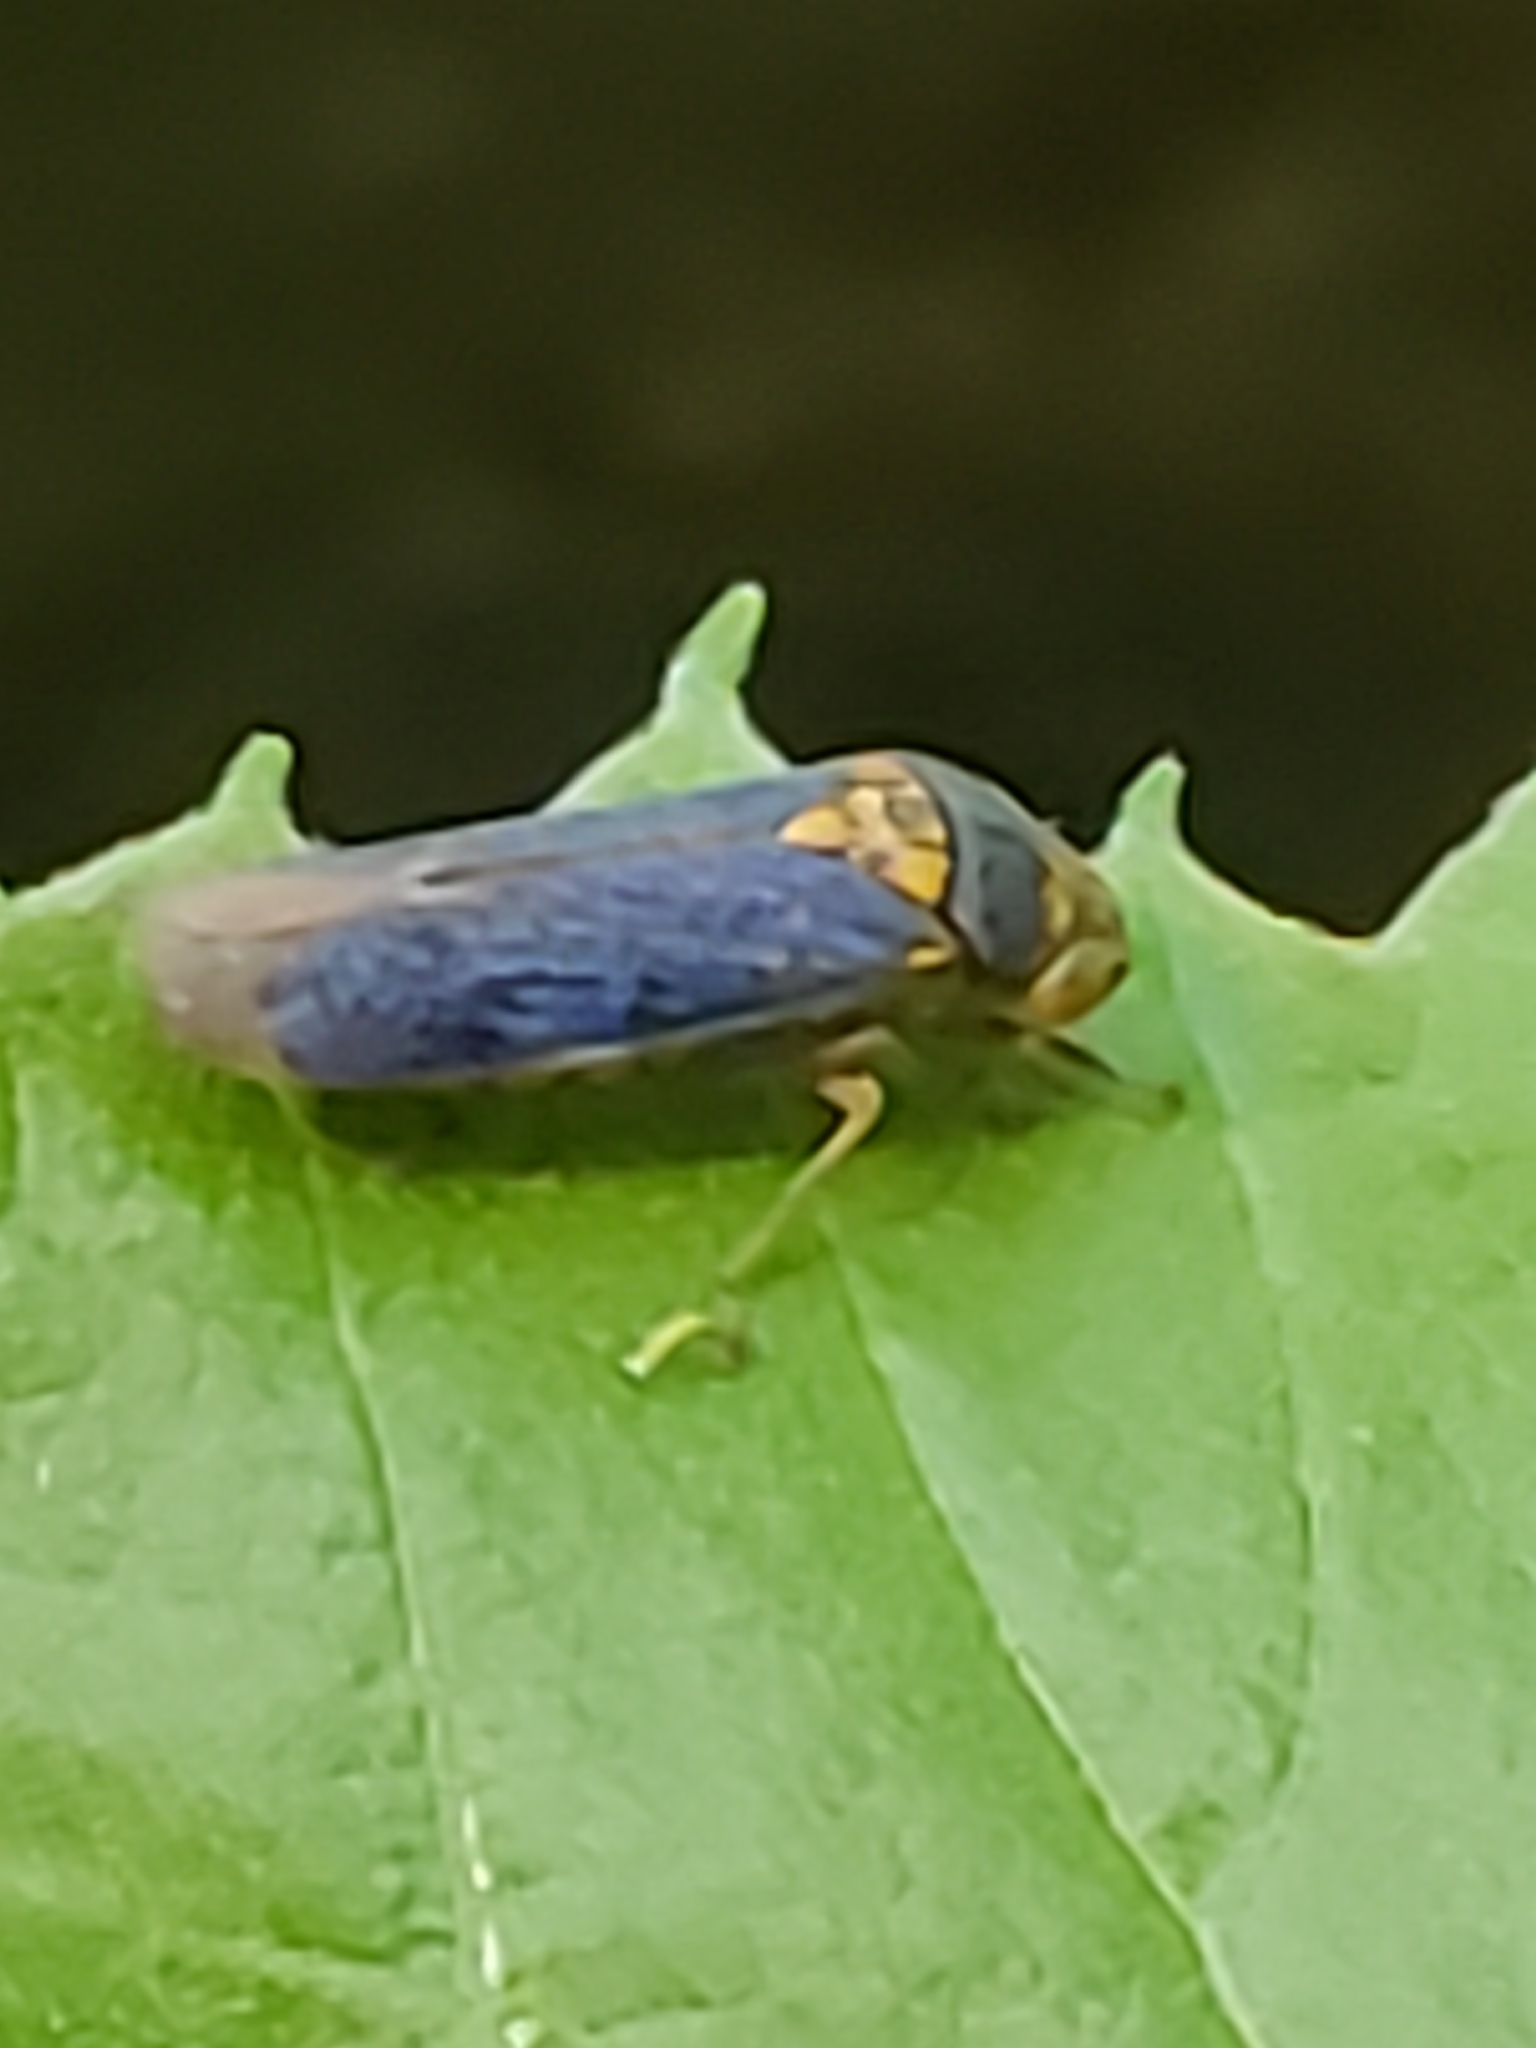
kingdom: Animalia
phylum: Arthropoda
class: Insecta
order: Hemiptera
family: Cicadellidae
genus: Oncometopia
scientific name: Oncometopia orbona
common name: Broad-headed sharpshooter
